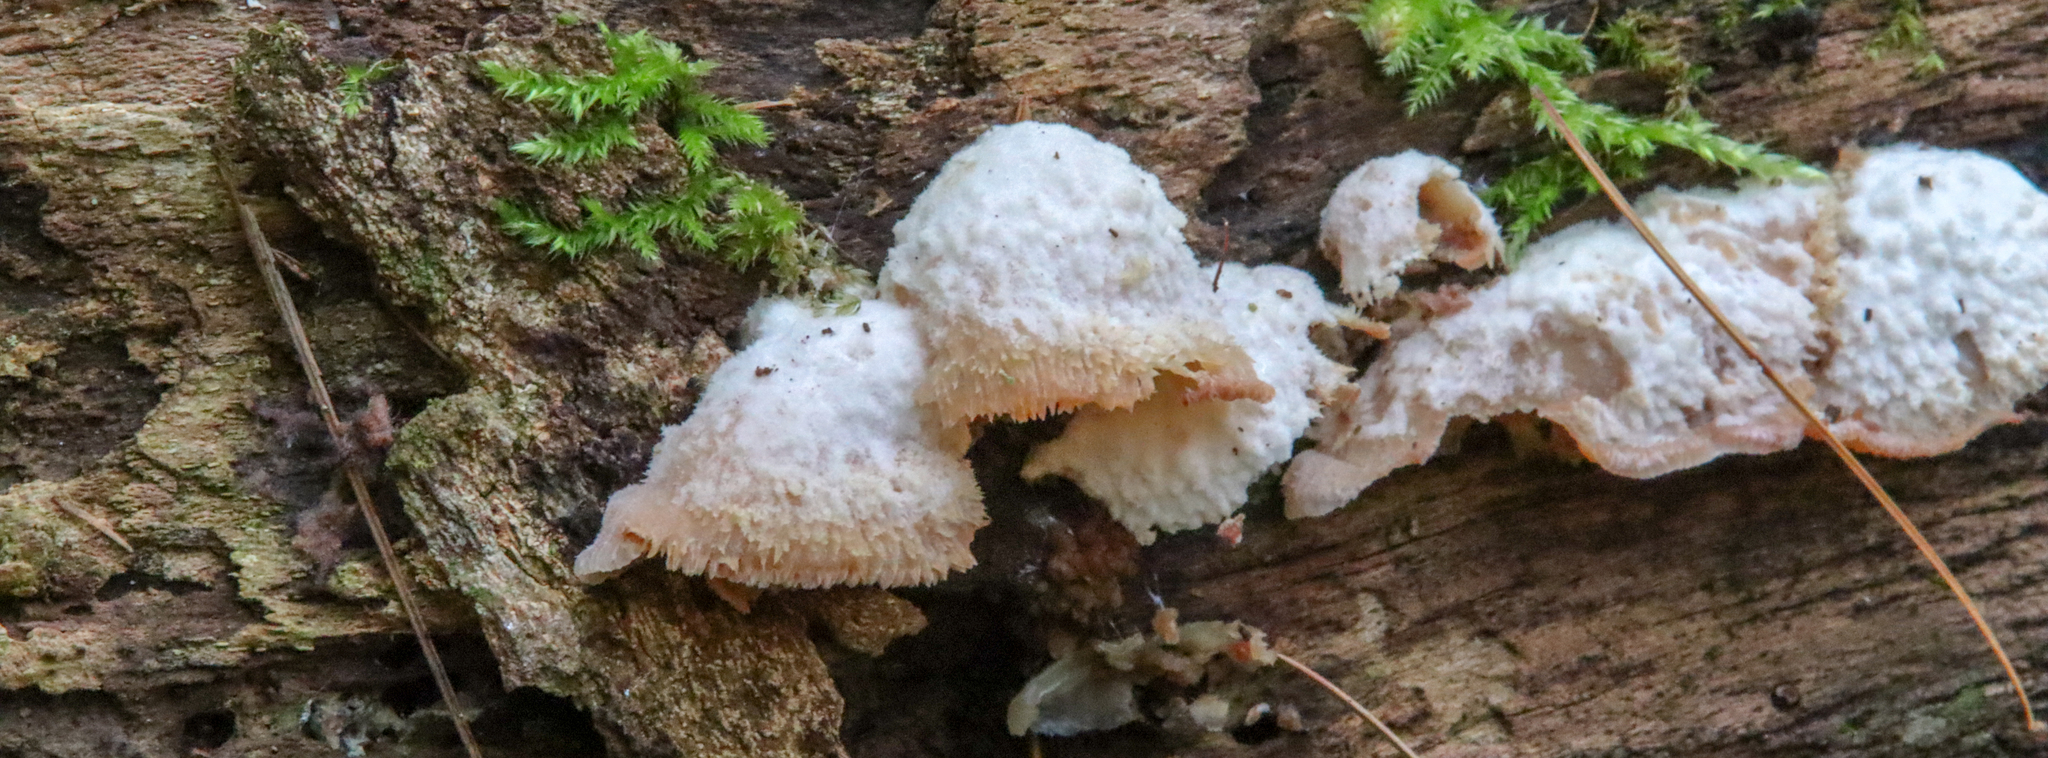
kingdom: Fungi
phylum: Basidiomycota
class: Agaricomycetes
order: Polyporales
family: Meruliaceae
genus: Phlebia
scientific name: Phlebia tremellosa
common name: Jelly rot
